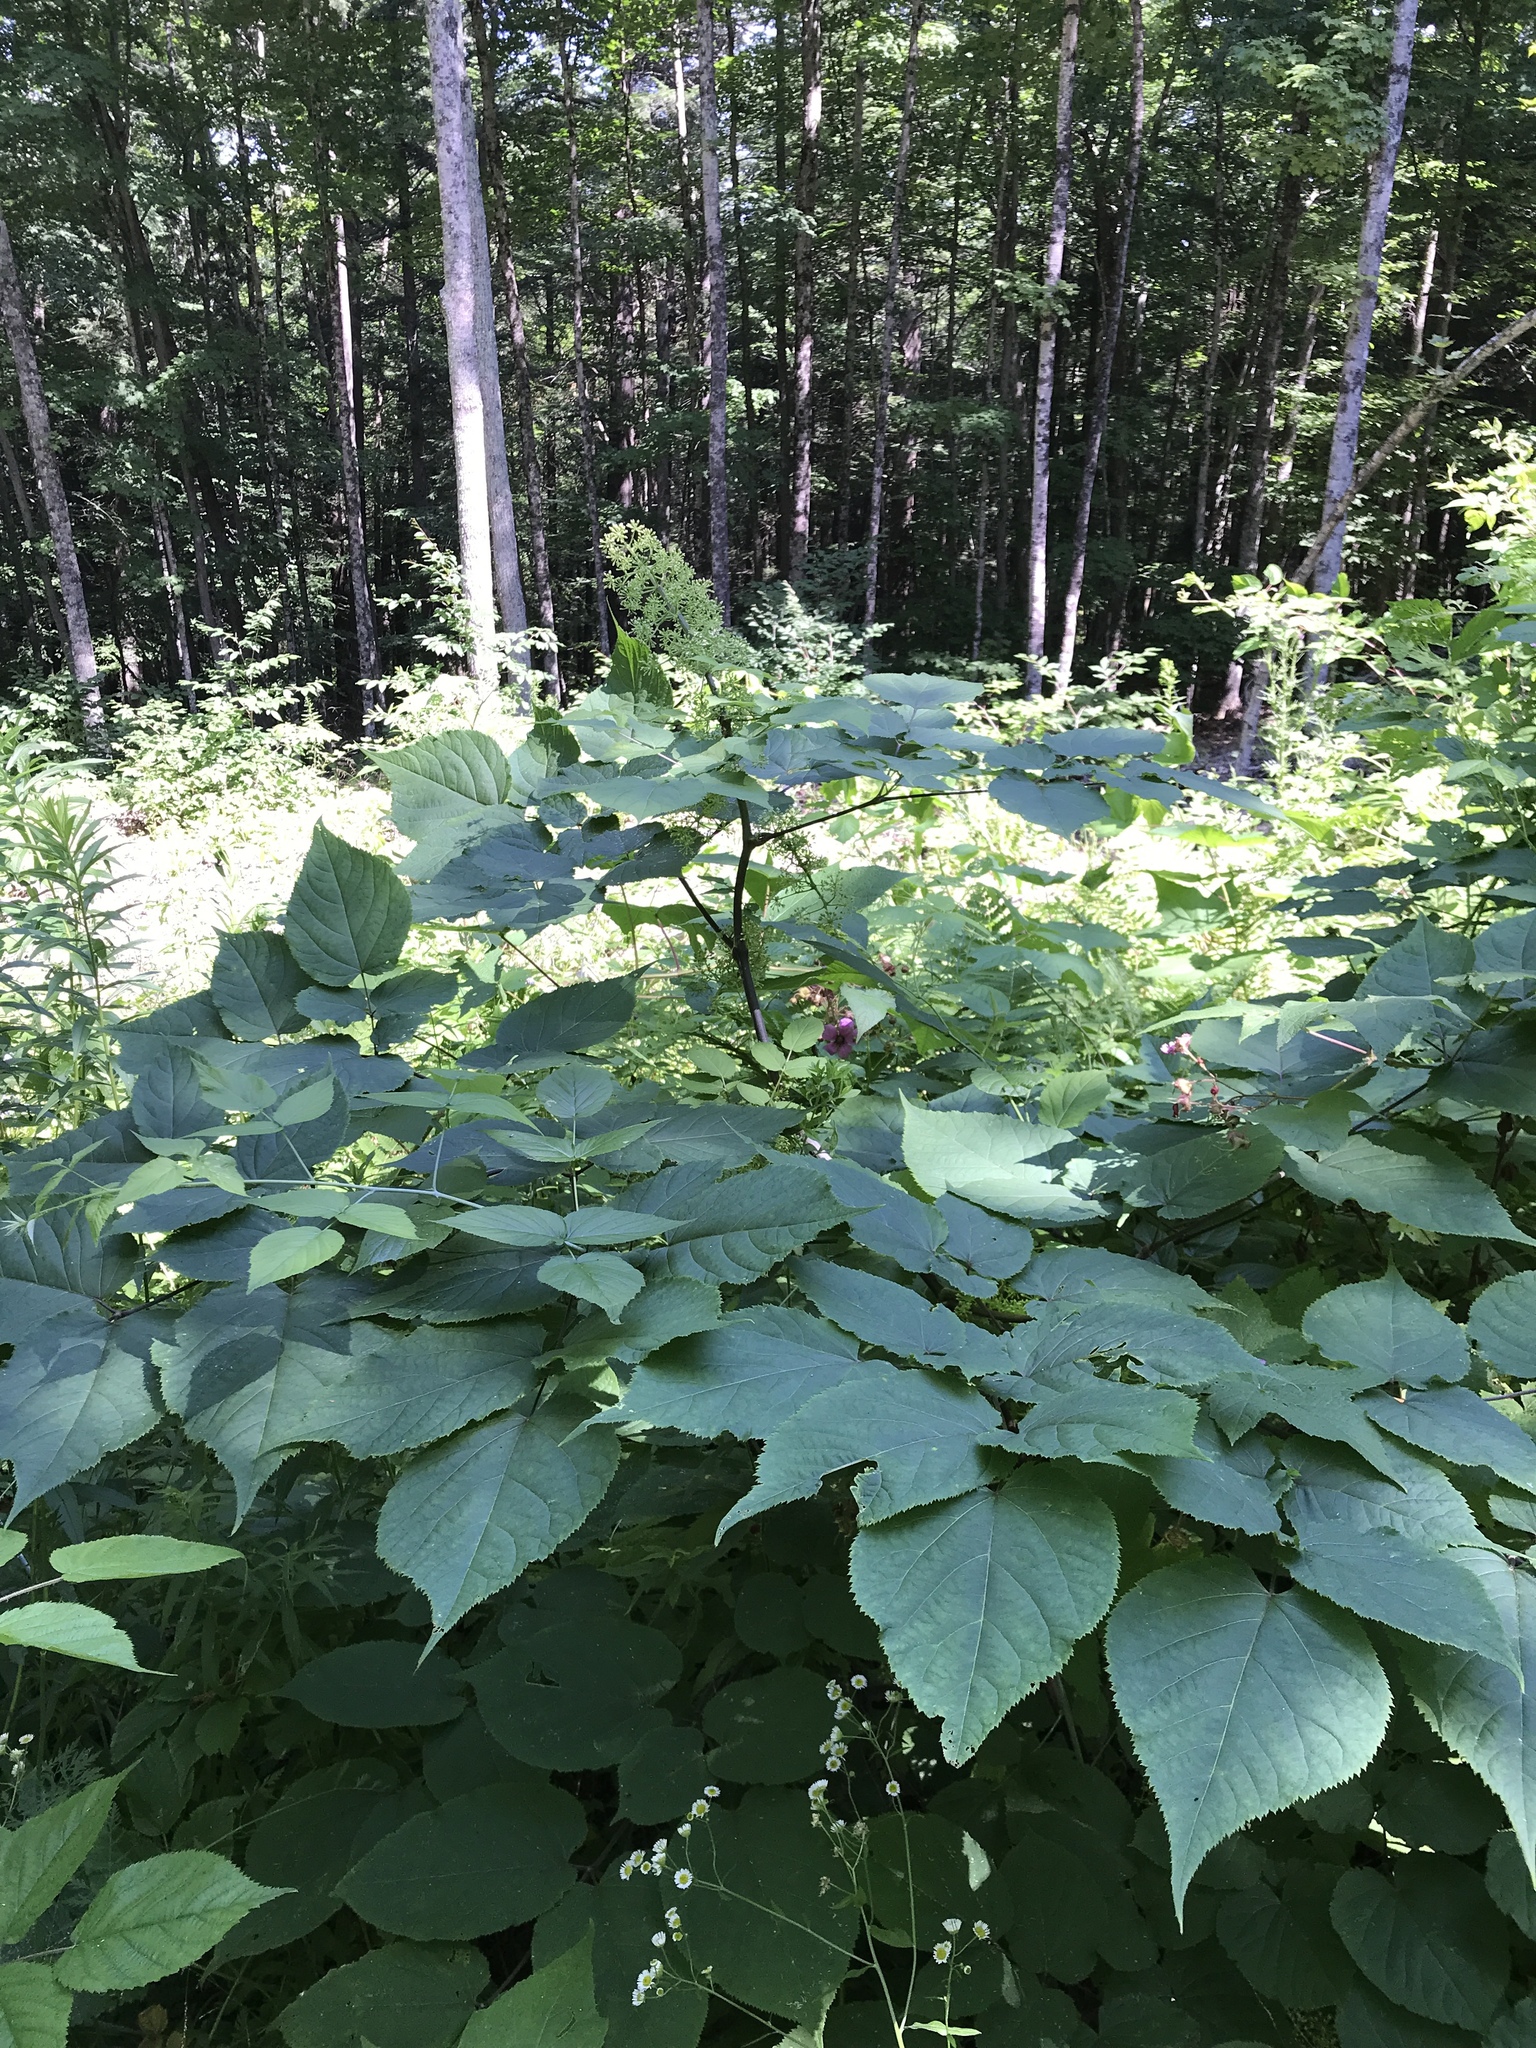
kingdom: Plantae
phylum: Tracheophyta
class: Magnoliopsida
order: Apiales
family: Araliaceae
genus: Aralia
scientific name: Aralia racemosa
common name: American-spikenard
